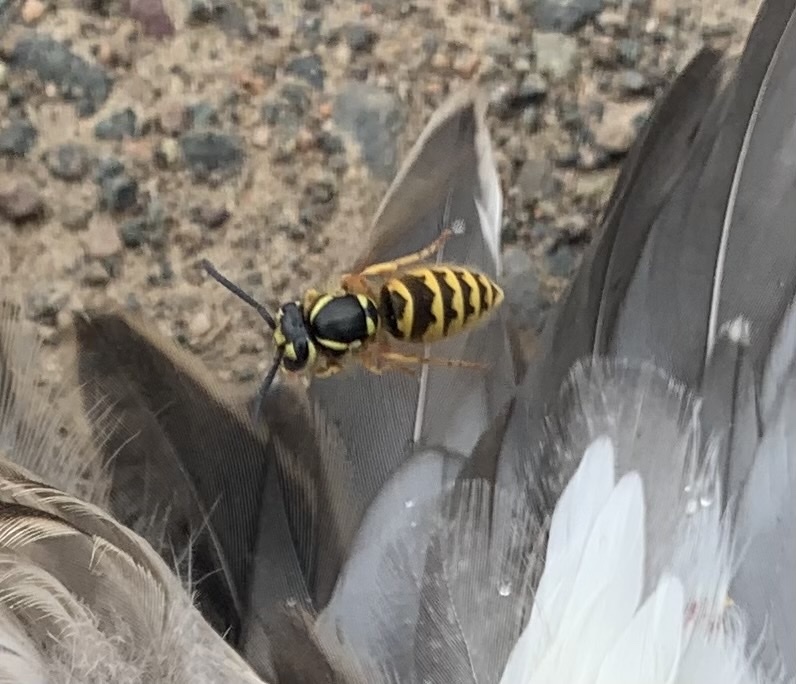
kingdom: Animalia
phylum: Arthropoda
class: Insecta
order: Hymenoptera
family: Vespidae
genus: Vespula
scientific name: Vespula flavopilosa
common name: Downy yellowjacket
